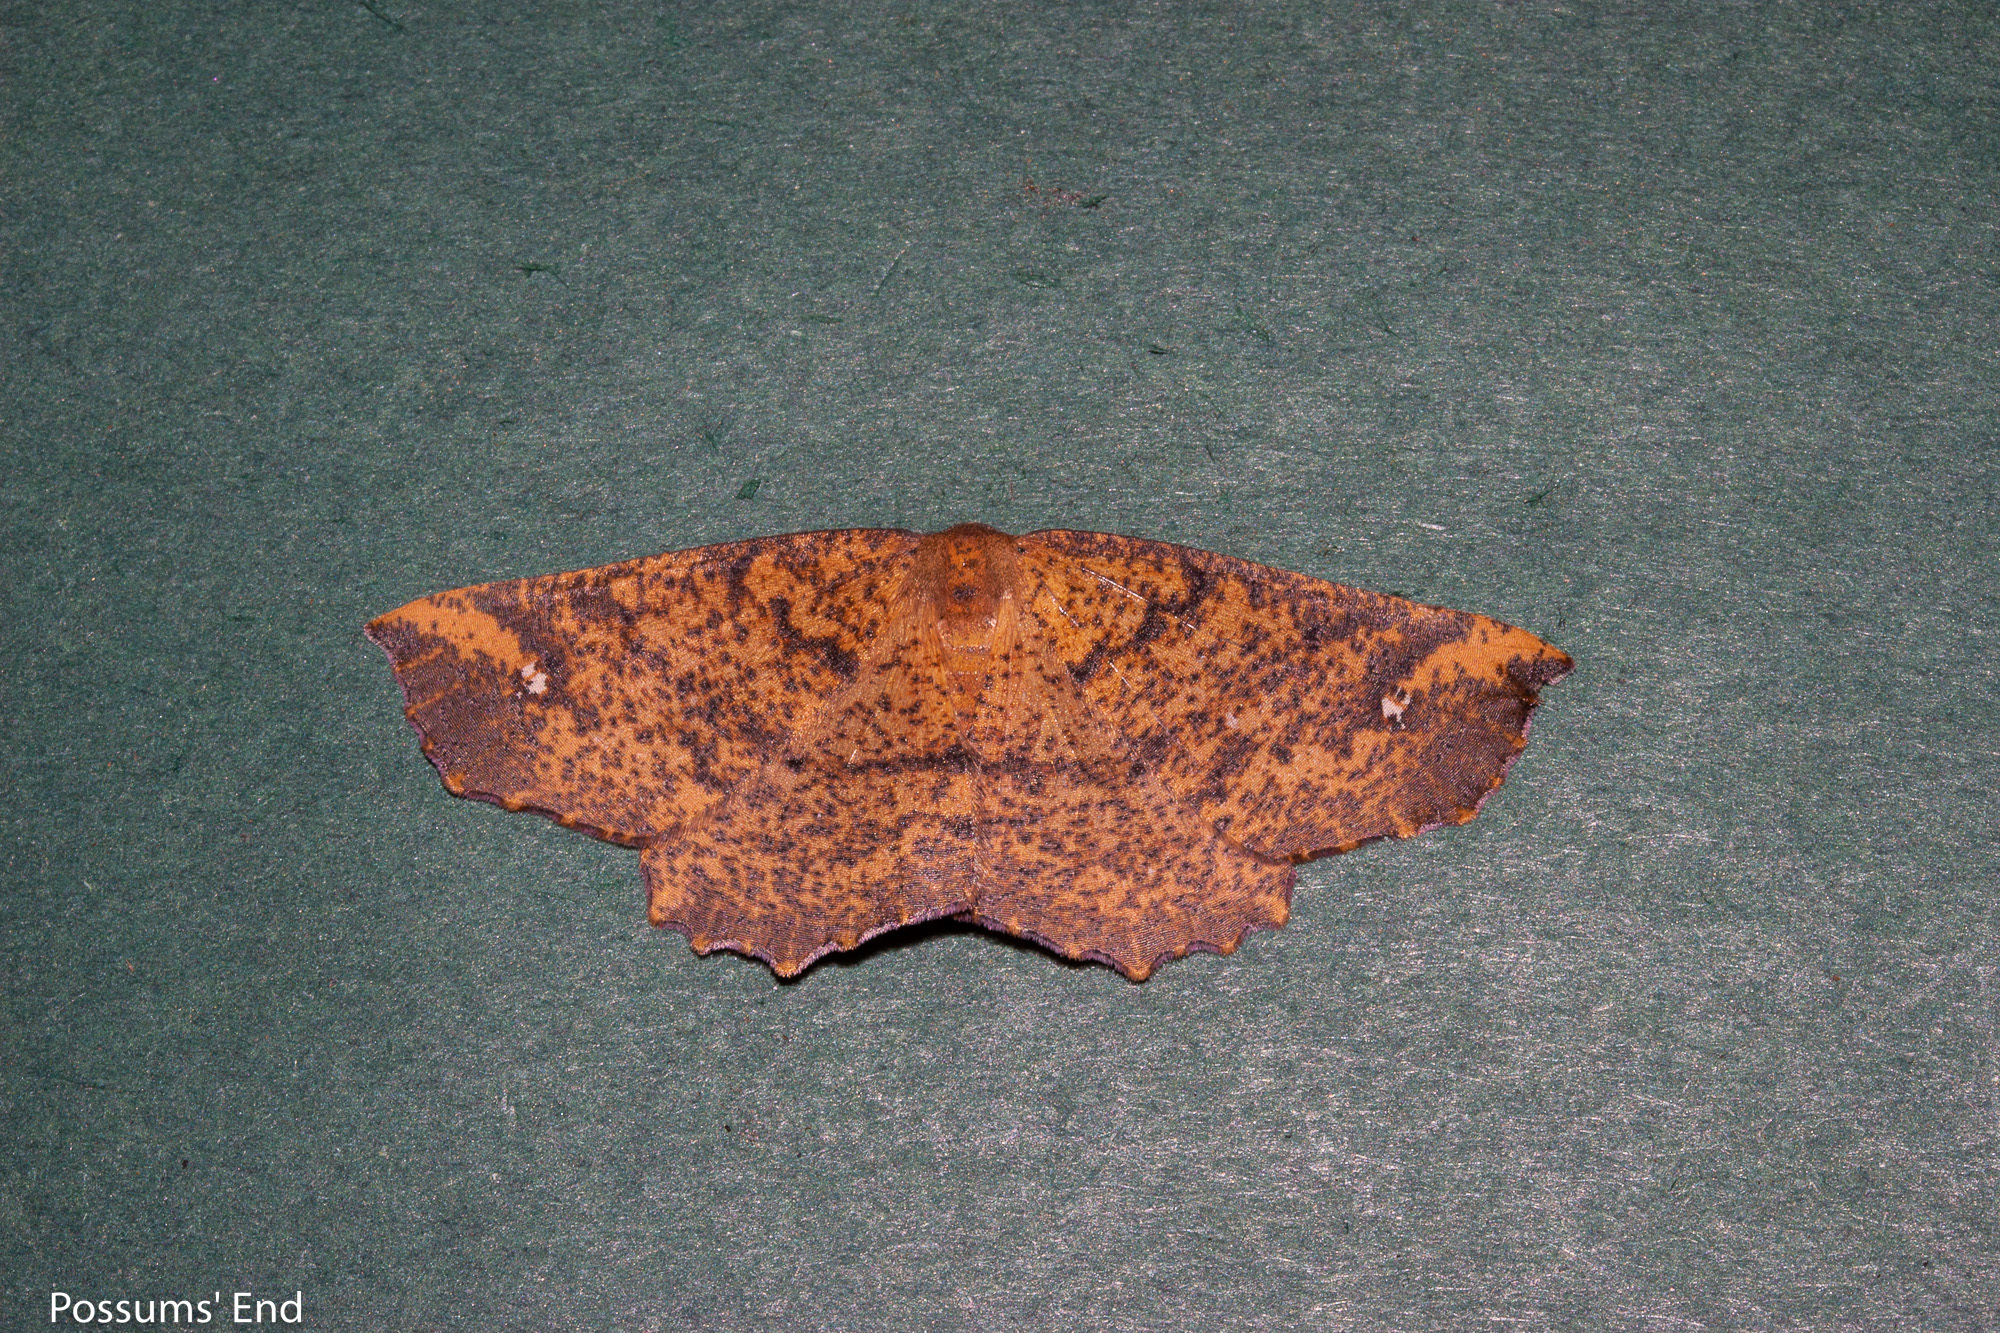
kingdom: Animalia
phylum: Arthropoda
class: Insecta
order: Lepidoptera
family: Geometridae
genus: Xyridacma
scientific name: Xyridacma ustaria
